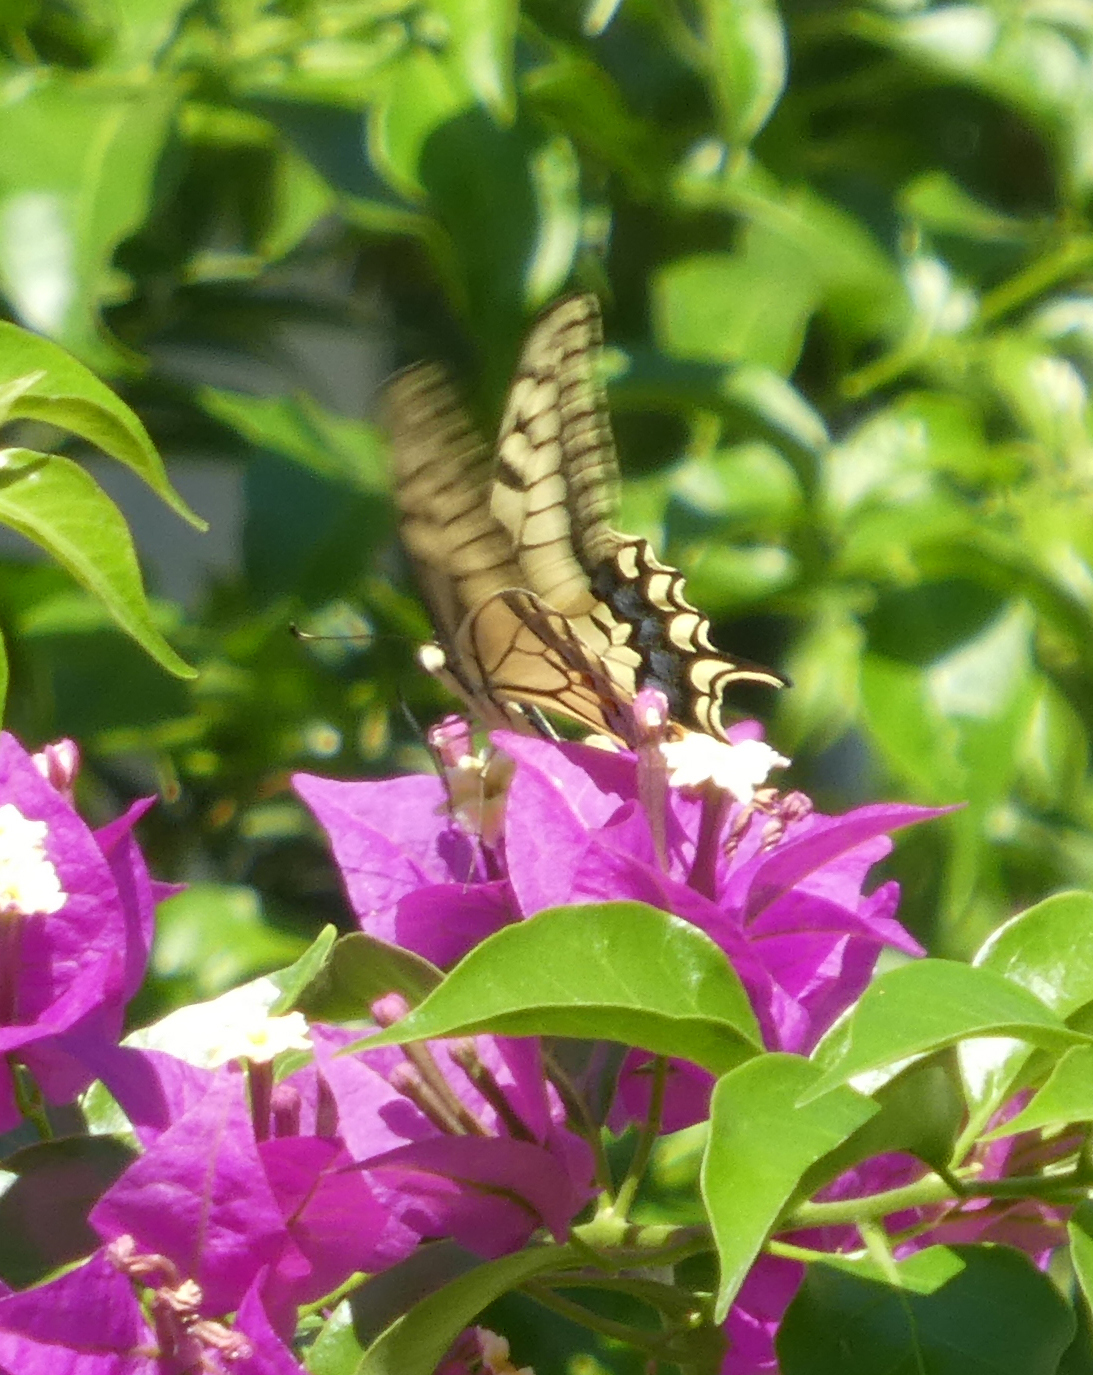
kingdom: Animalia
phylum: Arthropoda
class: Insecta
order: Lepidoptera
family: Papilionidae
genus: Papilio
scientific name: Papilio machaon
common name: Swallowtail
